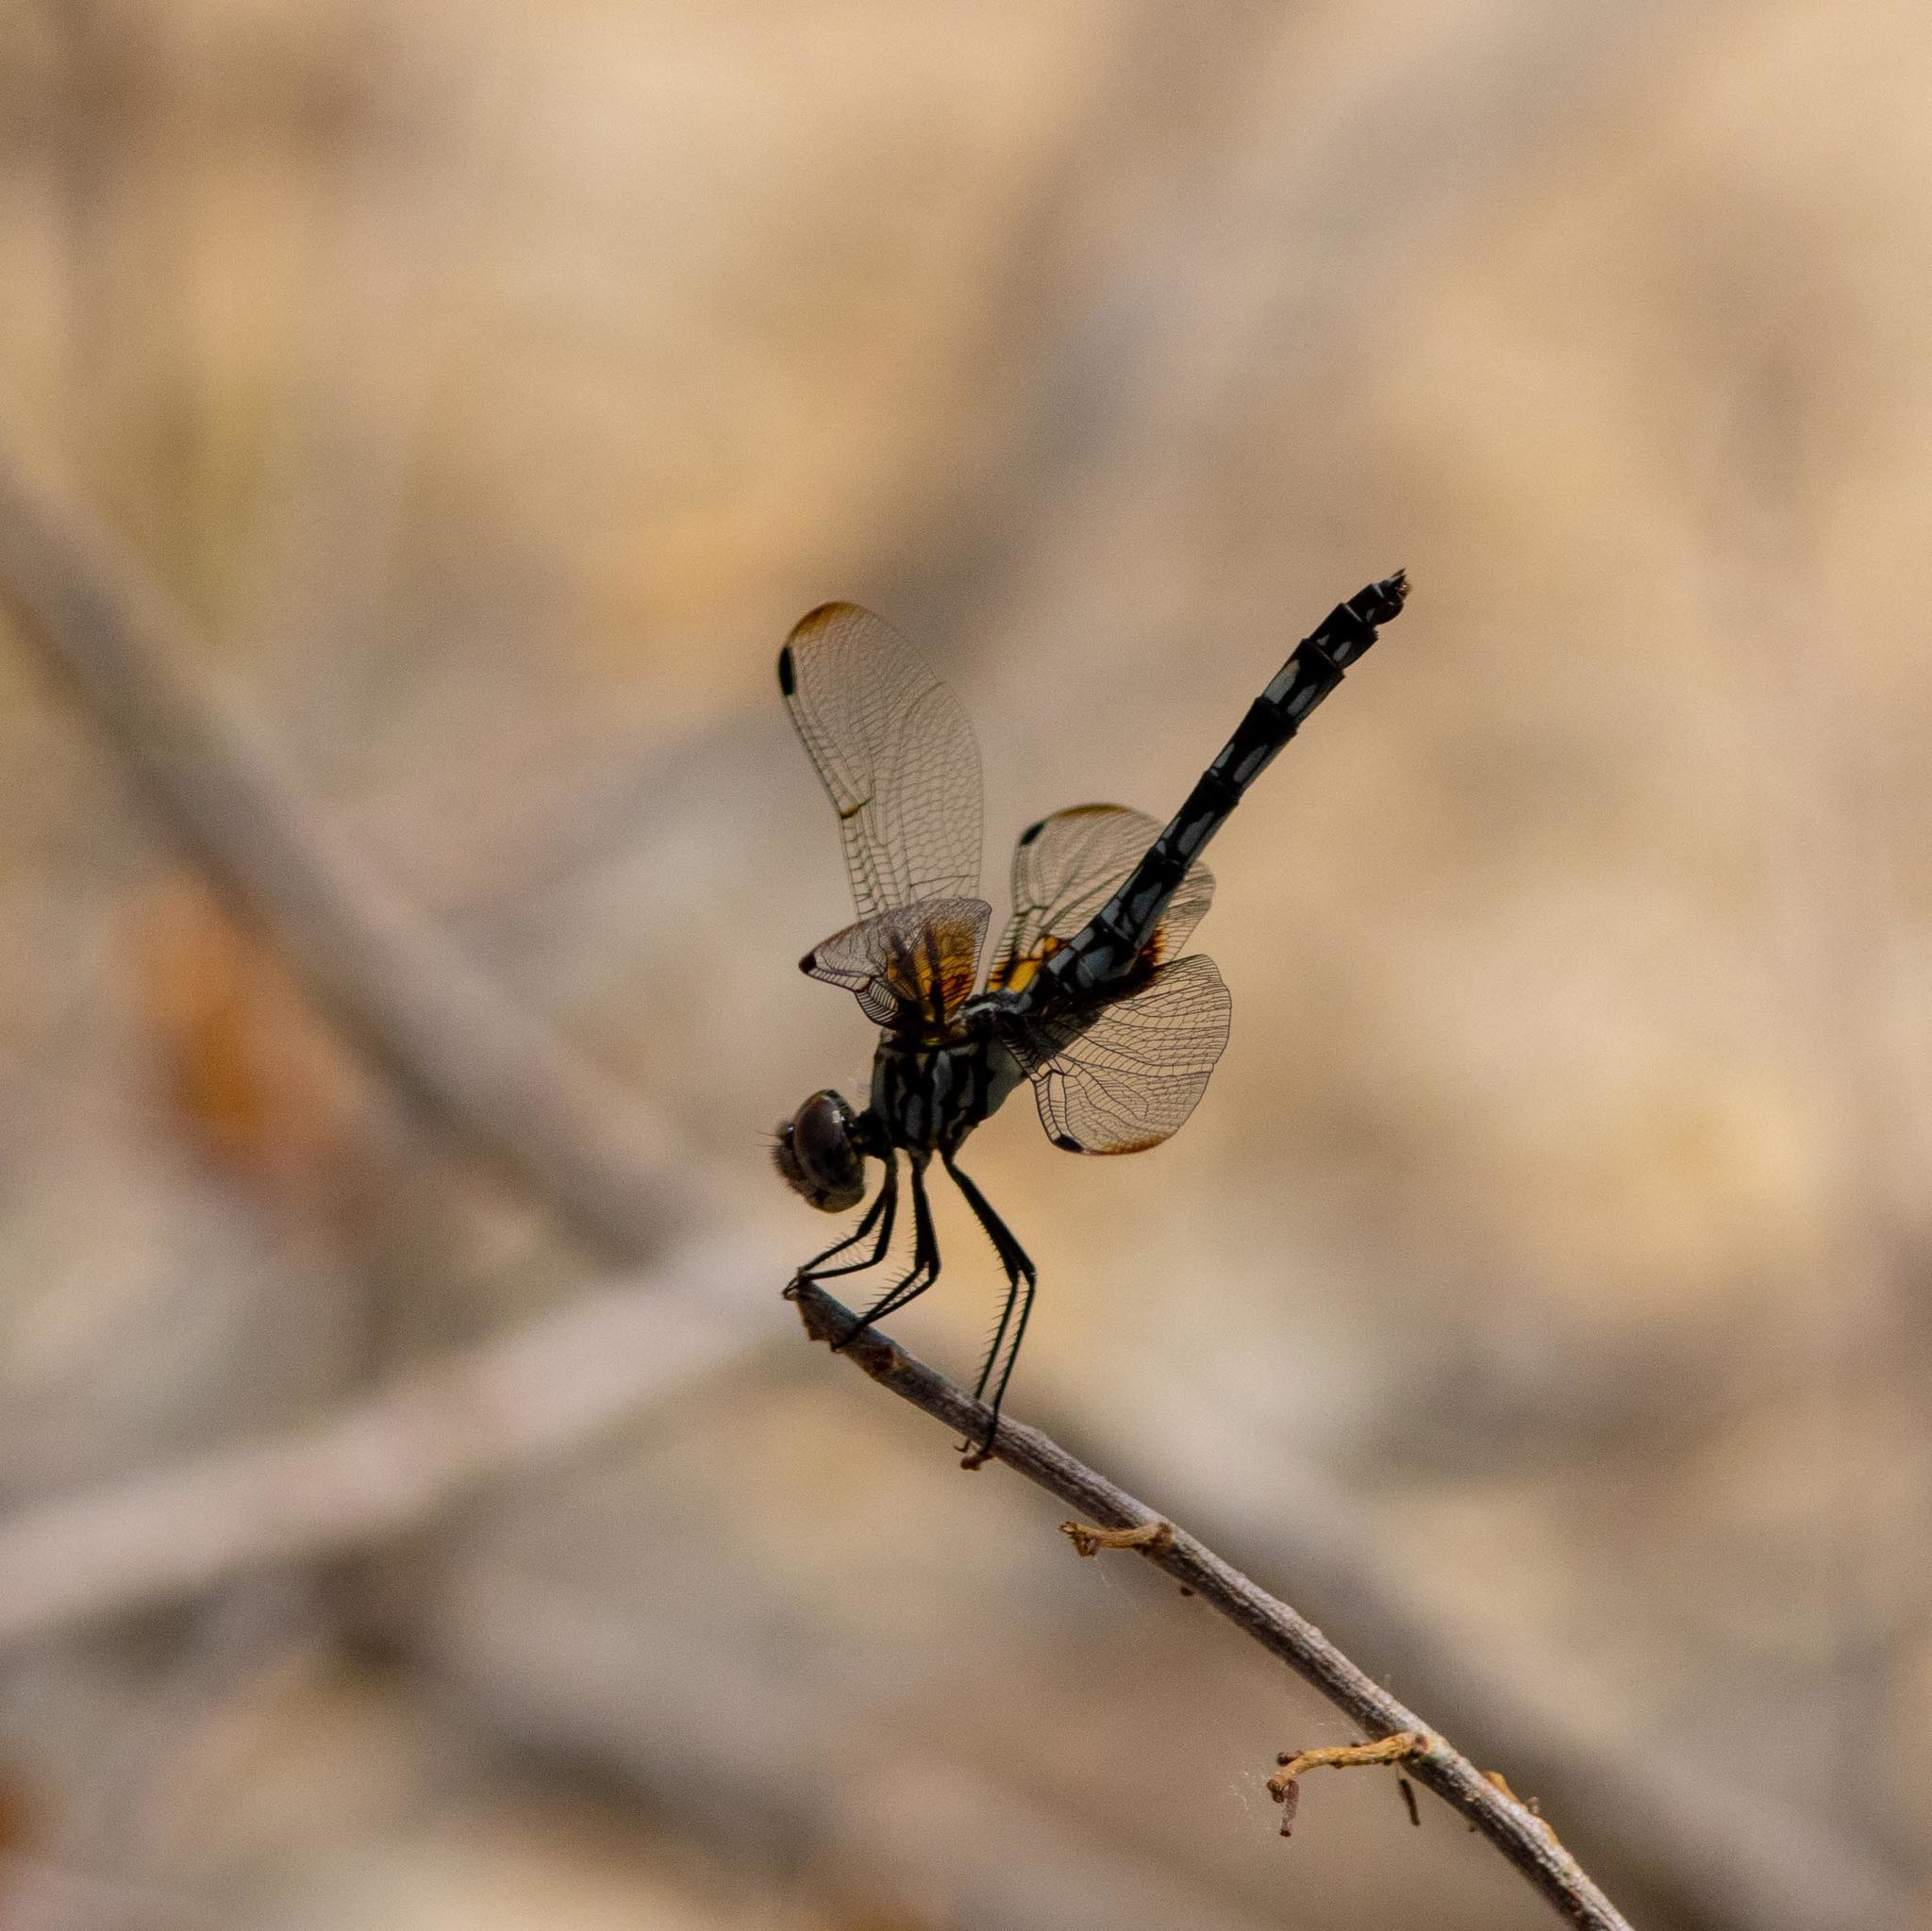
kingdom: Animalia
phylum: Arthropoda
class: Insecta
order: Odonata
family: Libellulidae
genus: Dythemis
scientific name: Dythemis fugax
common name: Checkered setwing
